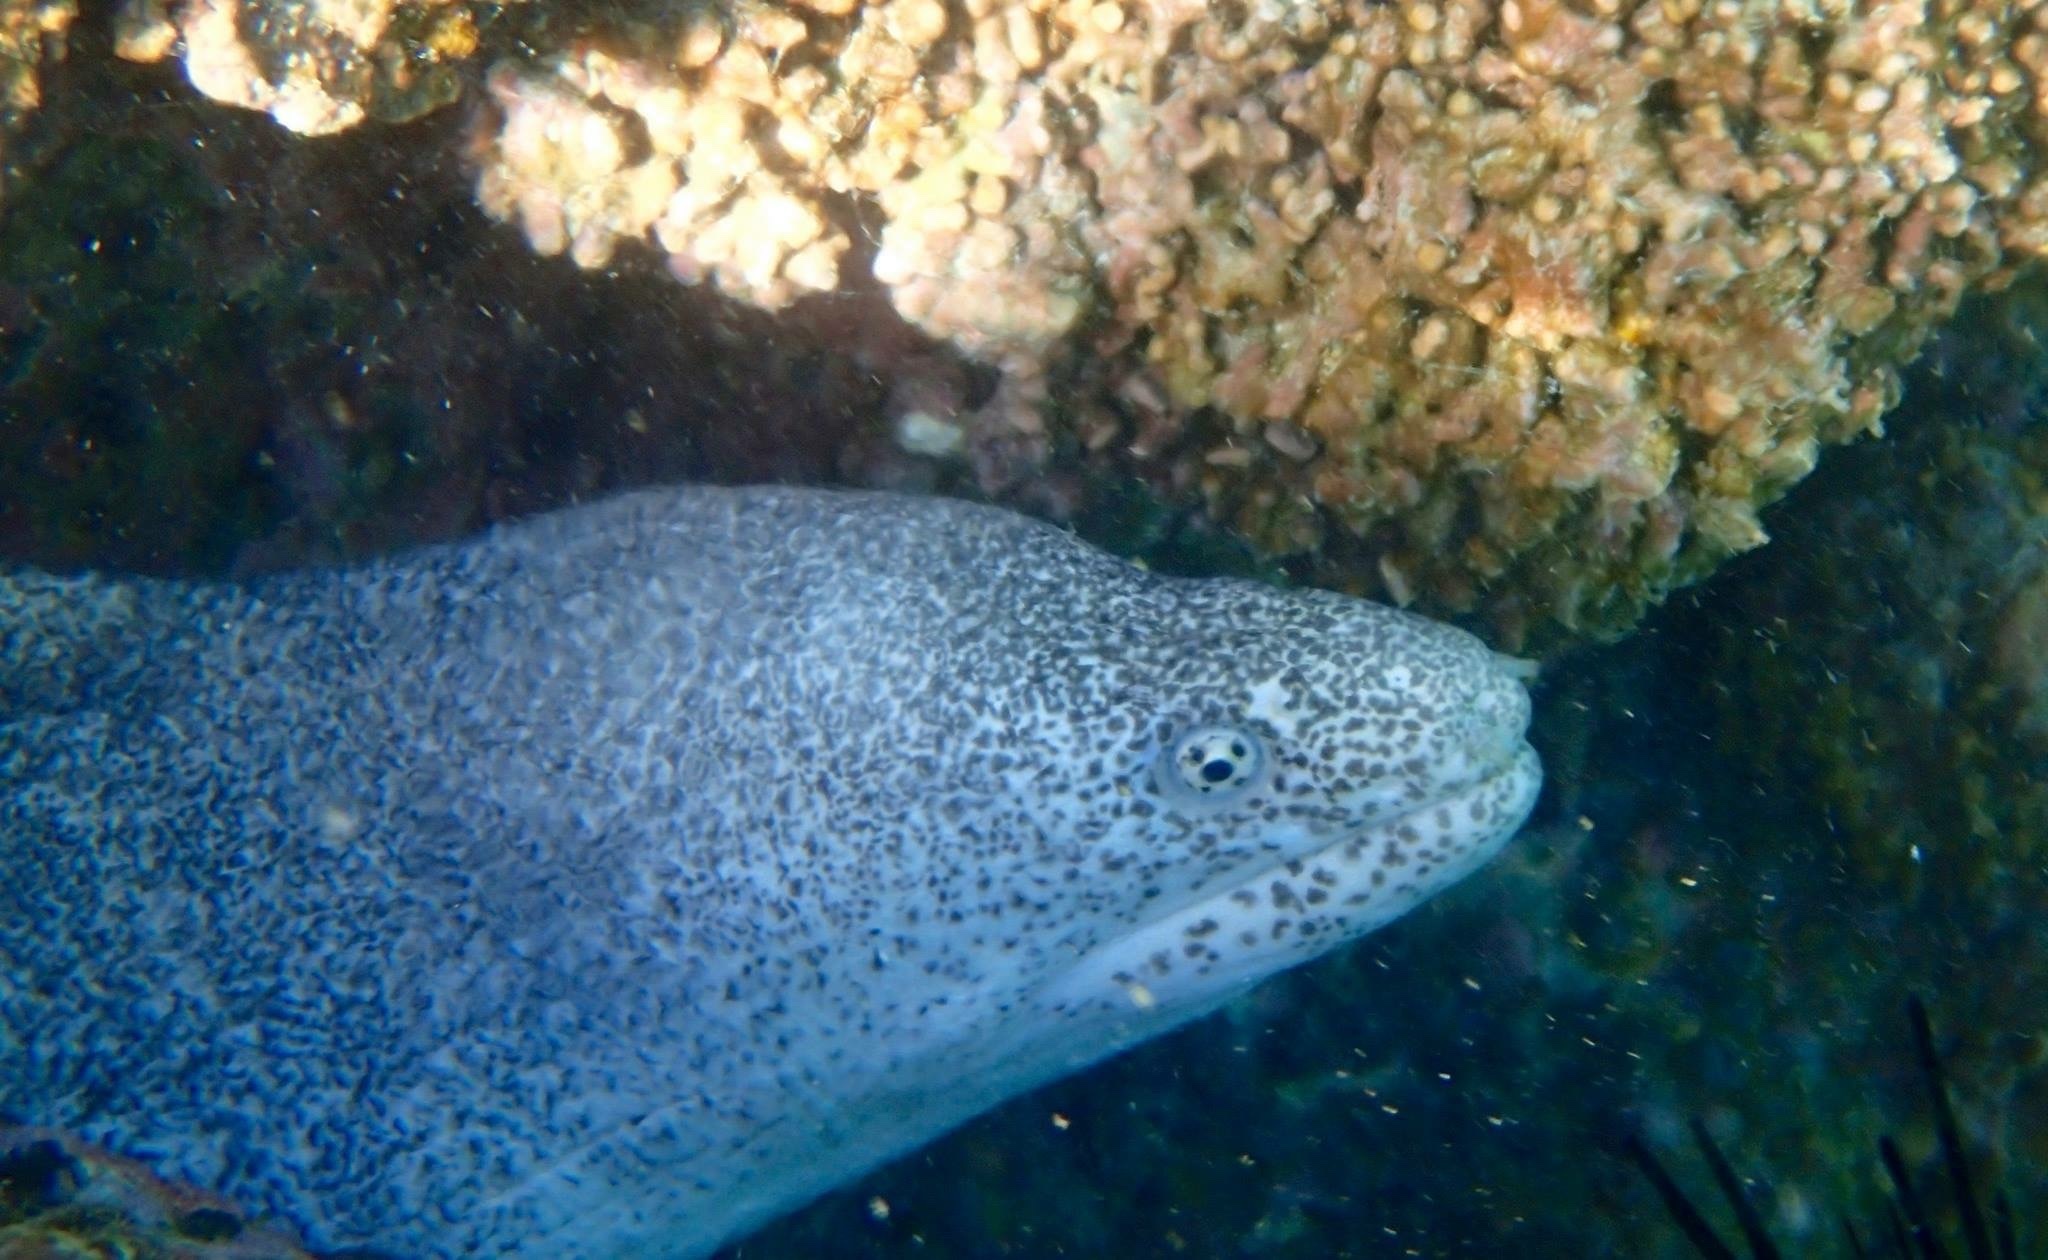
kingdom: Animalia
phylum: Chordata
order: Anguilliformes
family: Muraenidae
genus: Gymnothorax
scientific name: Gymnothorax pictus
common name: Peppered moray
